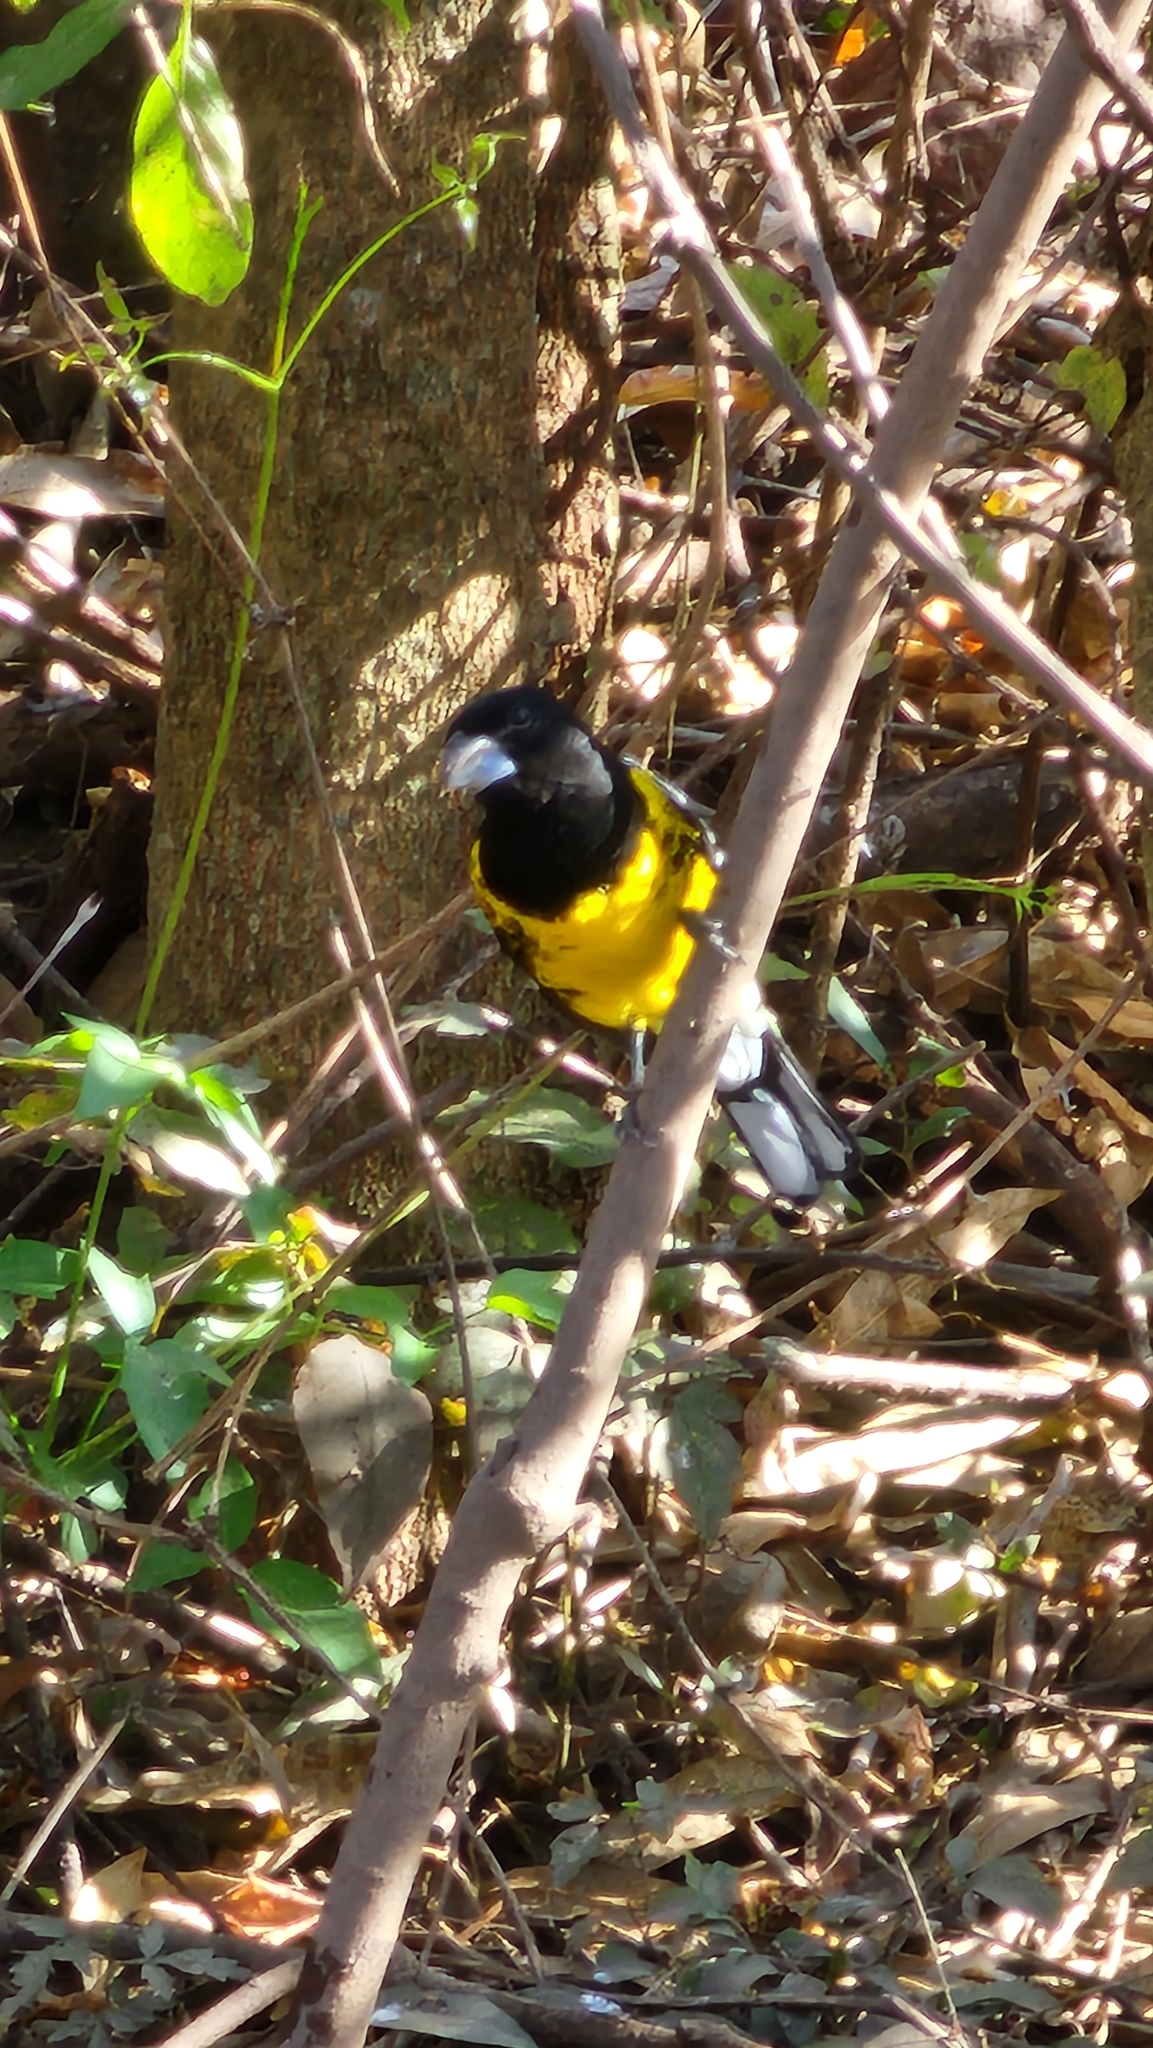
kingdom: Animalia
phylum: Chordata
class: Aves
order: Passeriformes
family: Cardinalidae
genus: Pheucticus
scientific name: Pheucticus aureoventris
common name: Black-backed grosbeak
